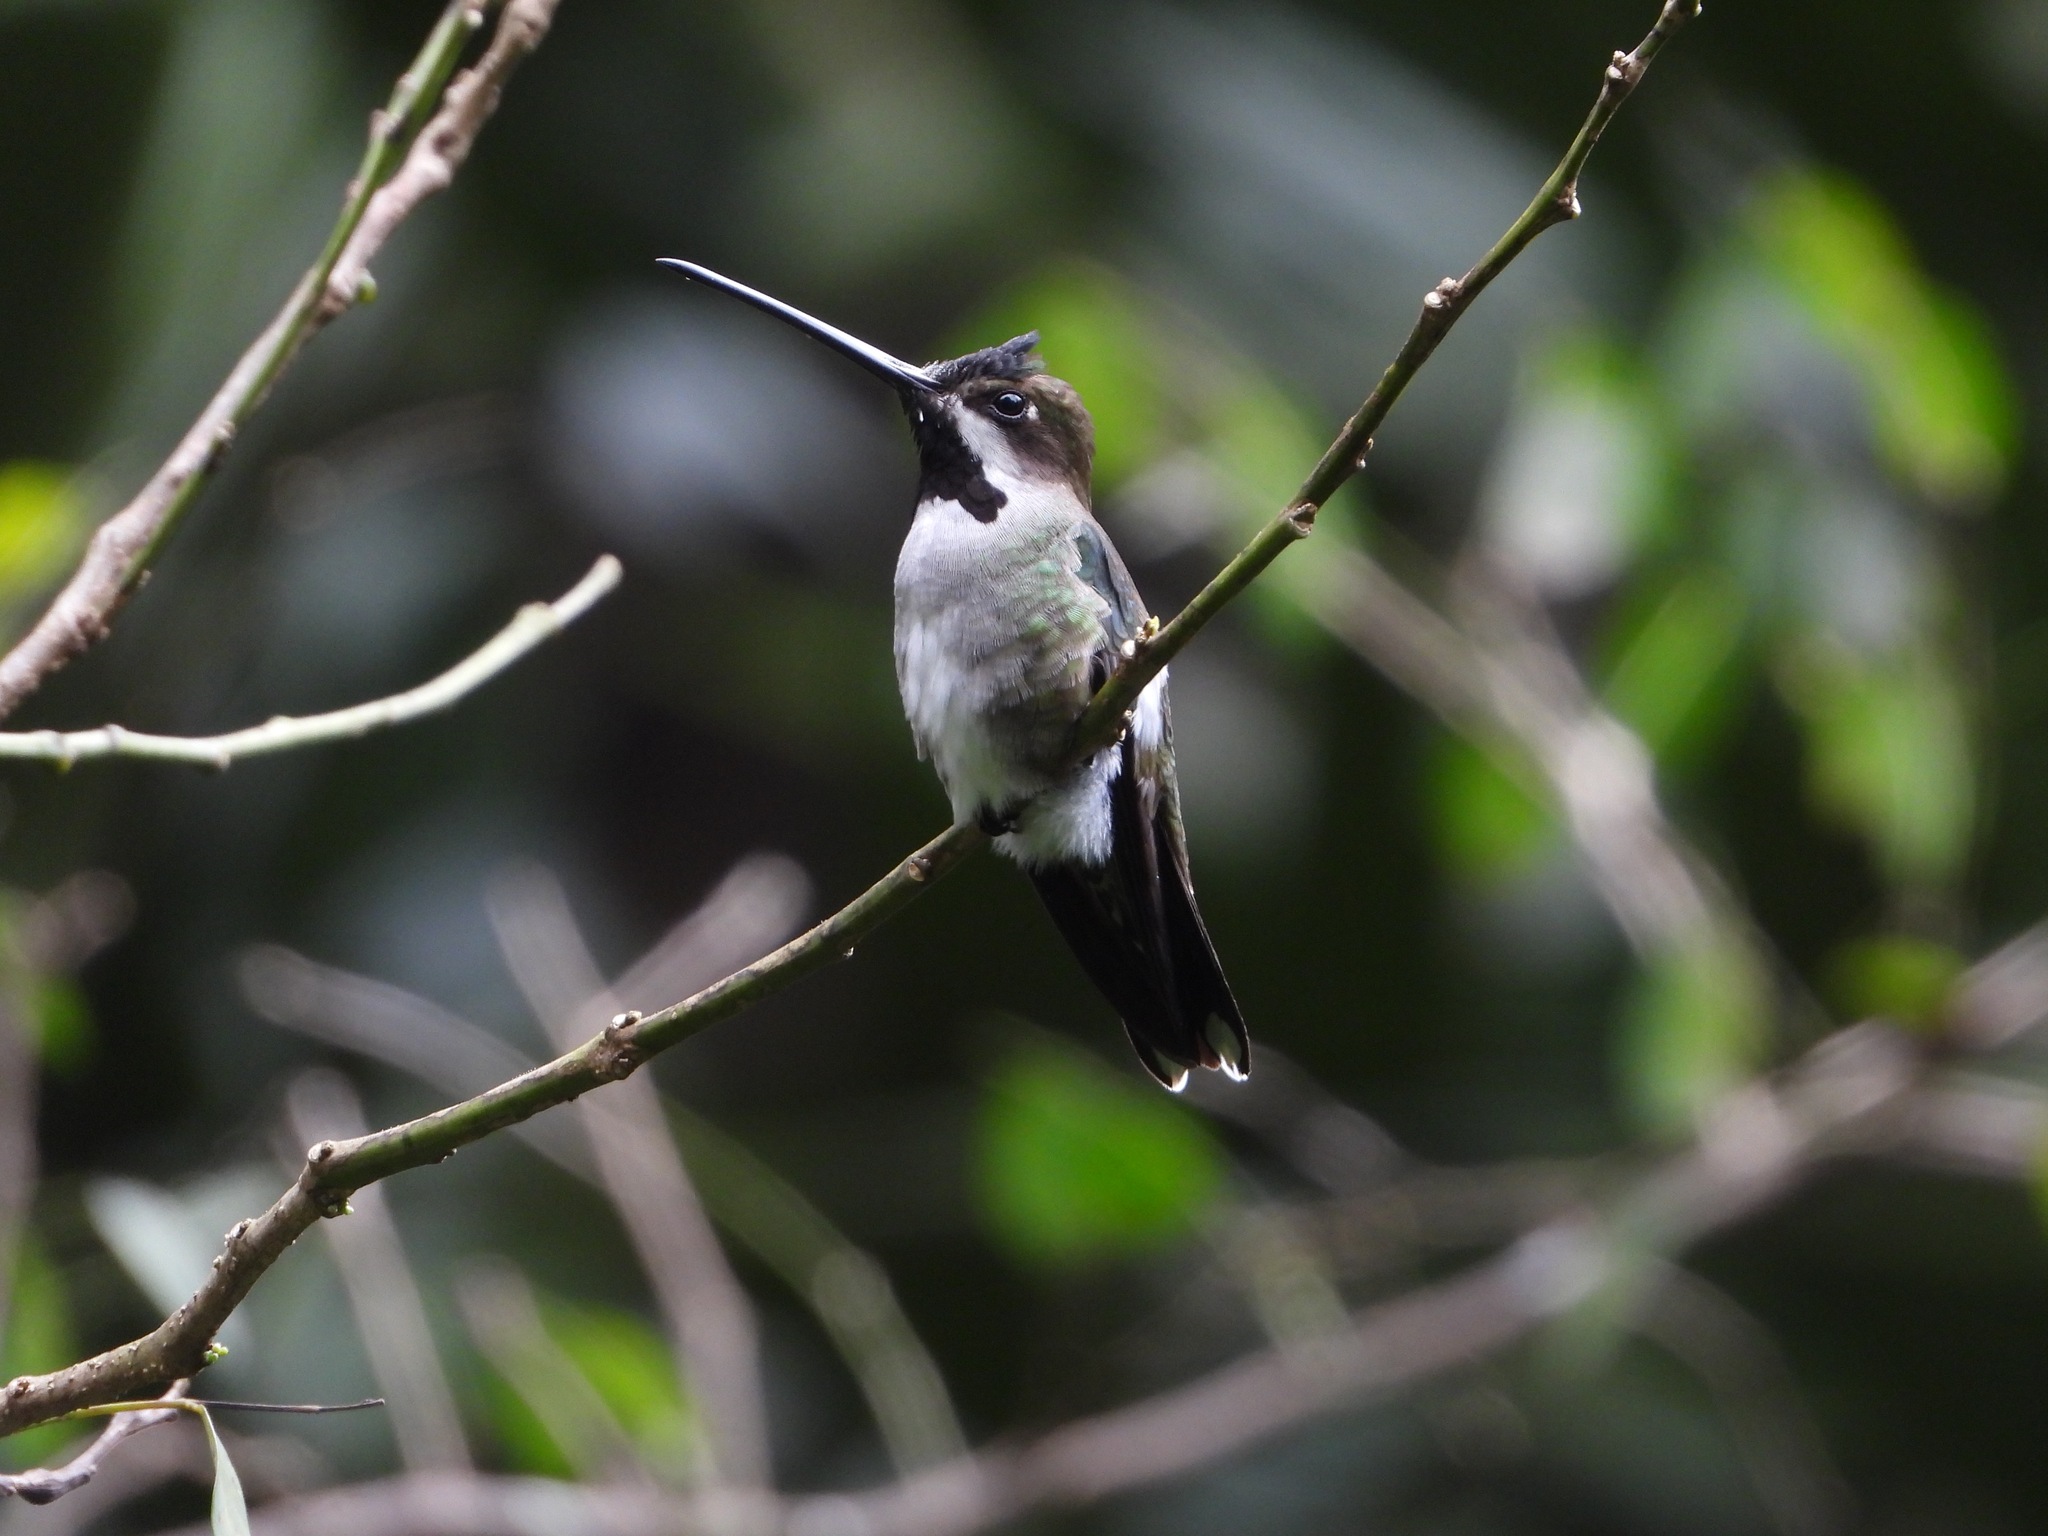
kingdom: Animalia
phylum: Chordata
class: Aves
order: Apodiformes
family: Trochilidae
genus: Heliomaster
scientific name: Heliomaster longirostris
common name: Long-billed starthroat
